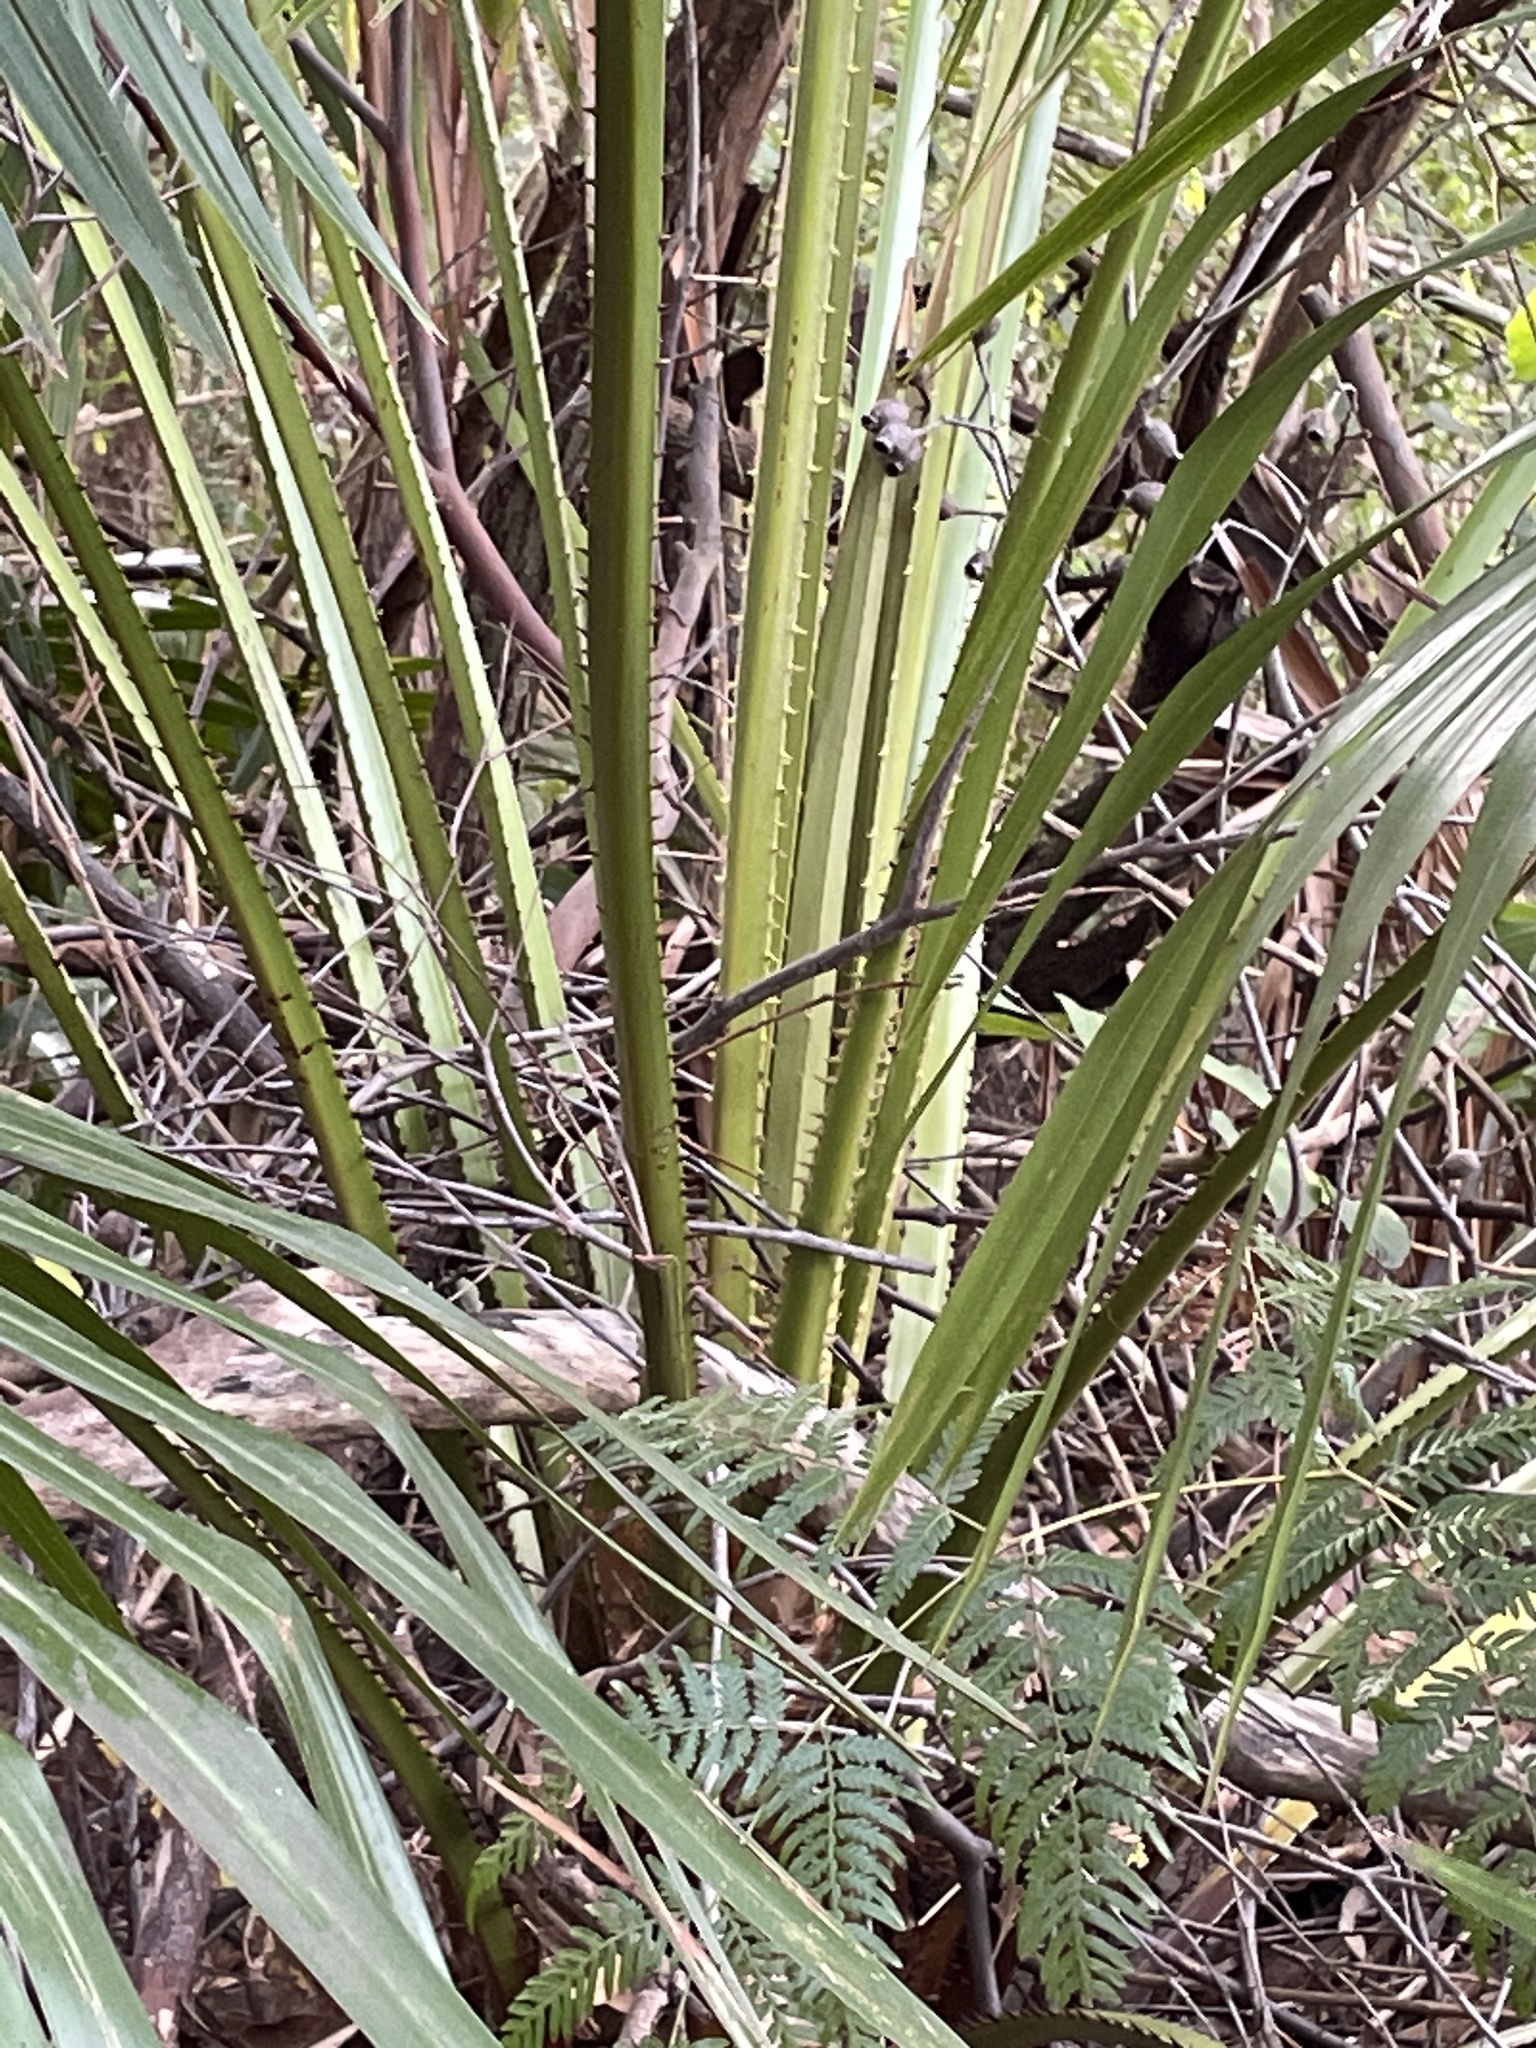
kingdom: Plantae
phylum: Tracheophyta
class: Liliopsida
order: Arecales
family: Arecaceae
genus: Livistona
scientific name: Livistona australis
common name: Cabbage fan palm
